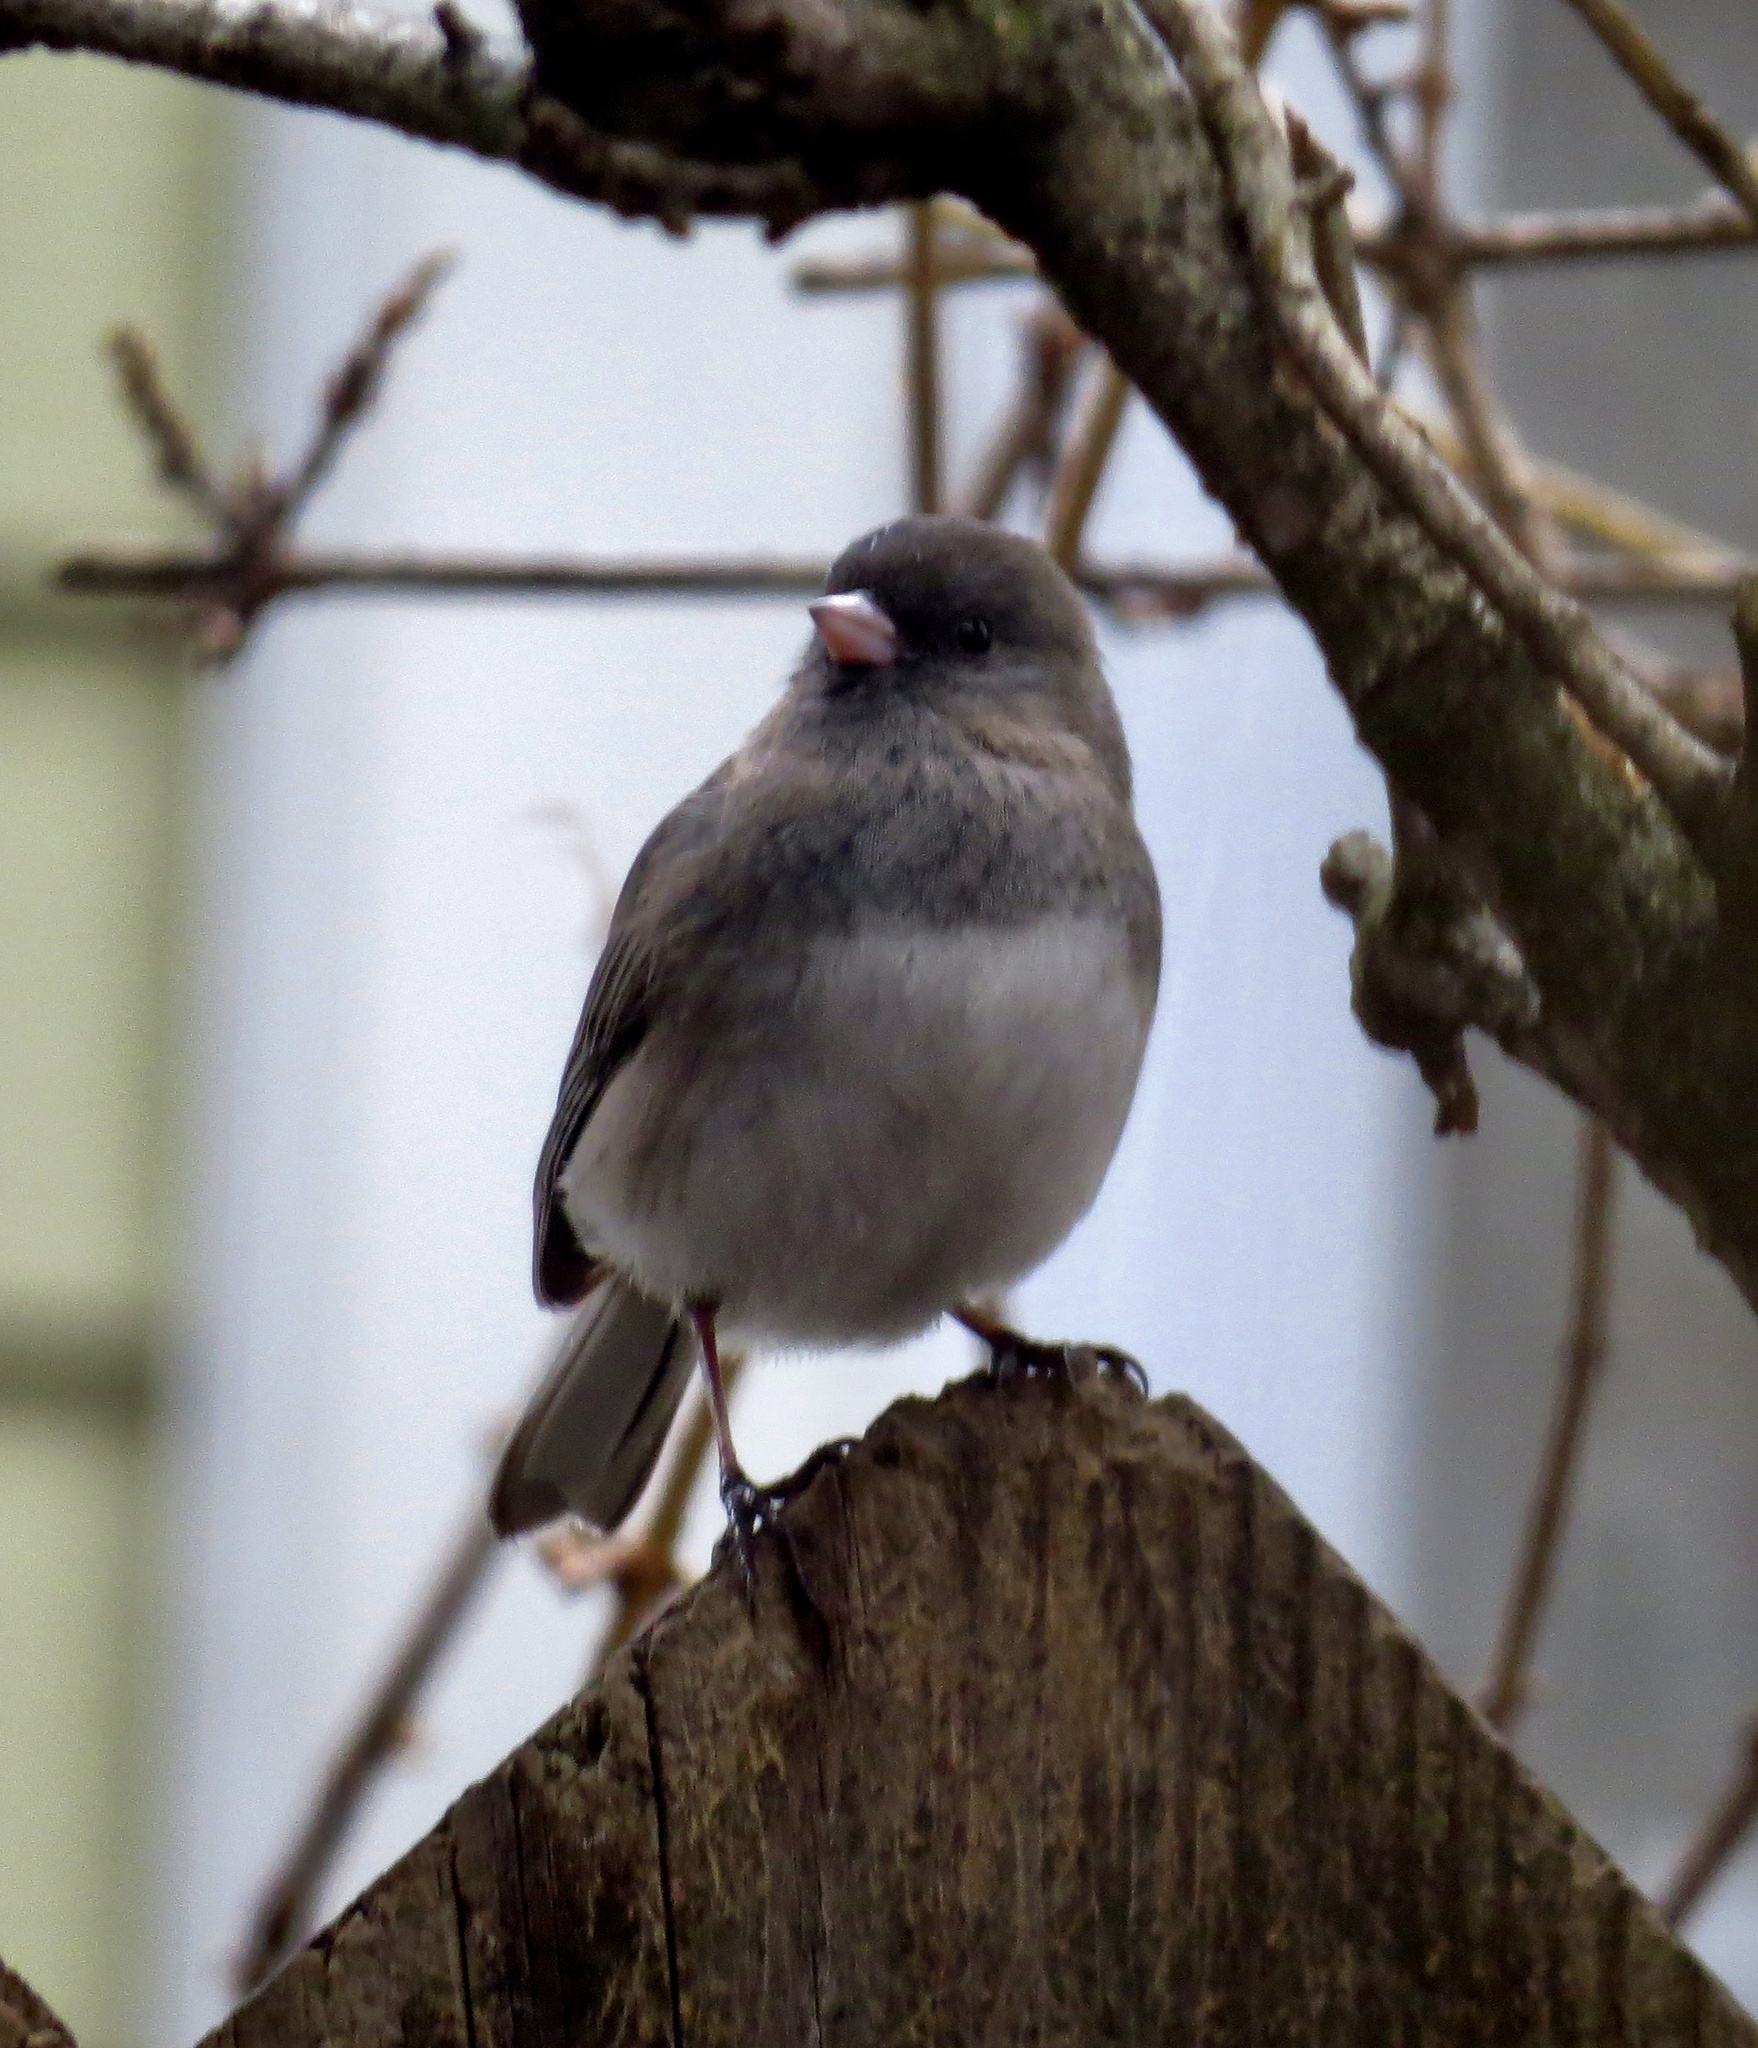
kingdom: Animalia
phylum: Chordata
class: Aves
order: Passeriformes
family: Passerellidae
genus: Junco
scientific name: Junco hyemalis
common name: Dark-eyed junco
